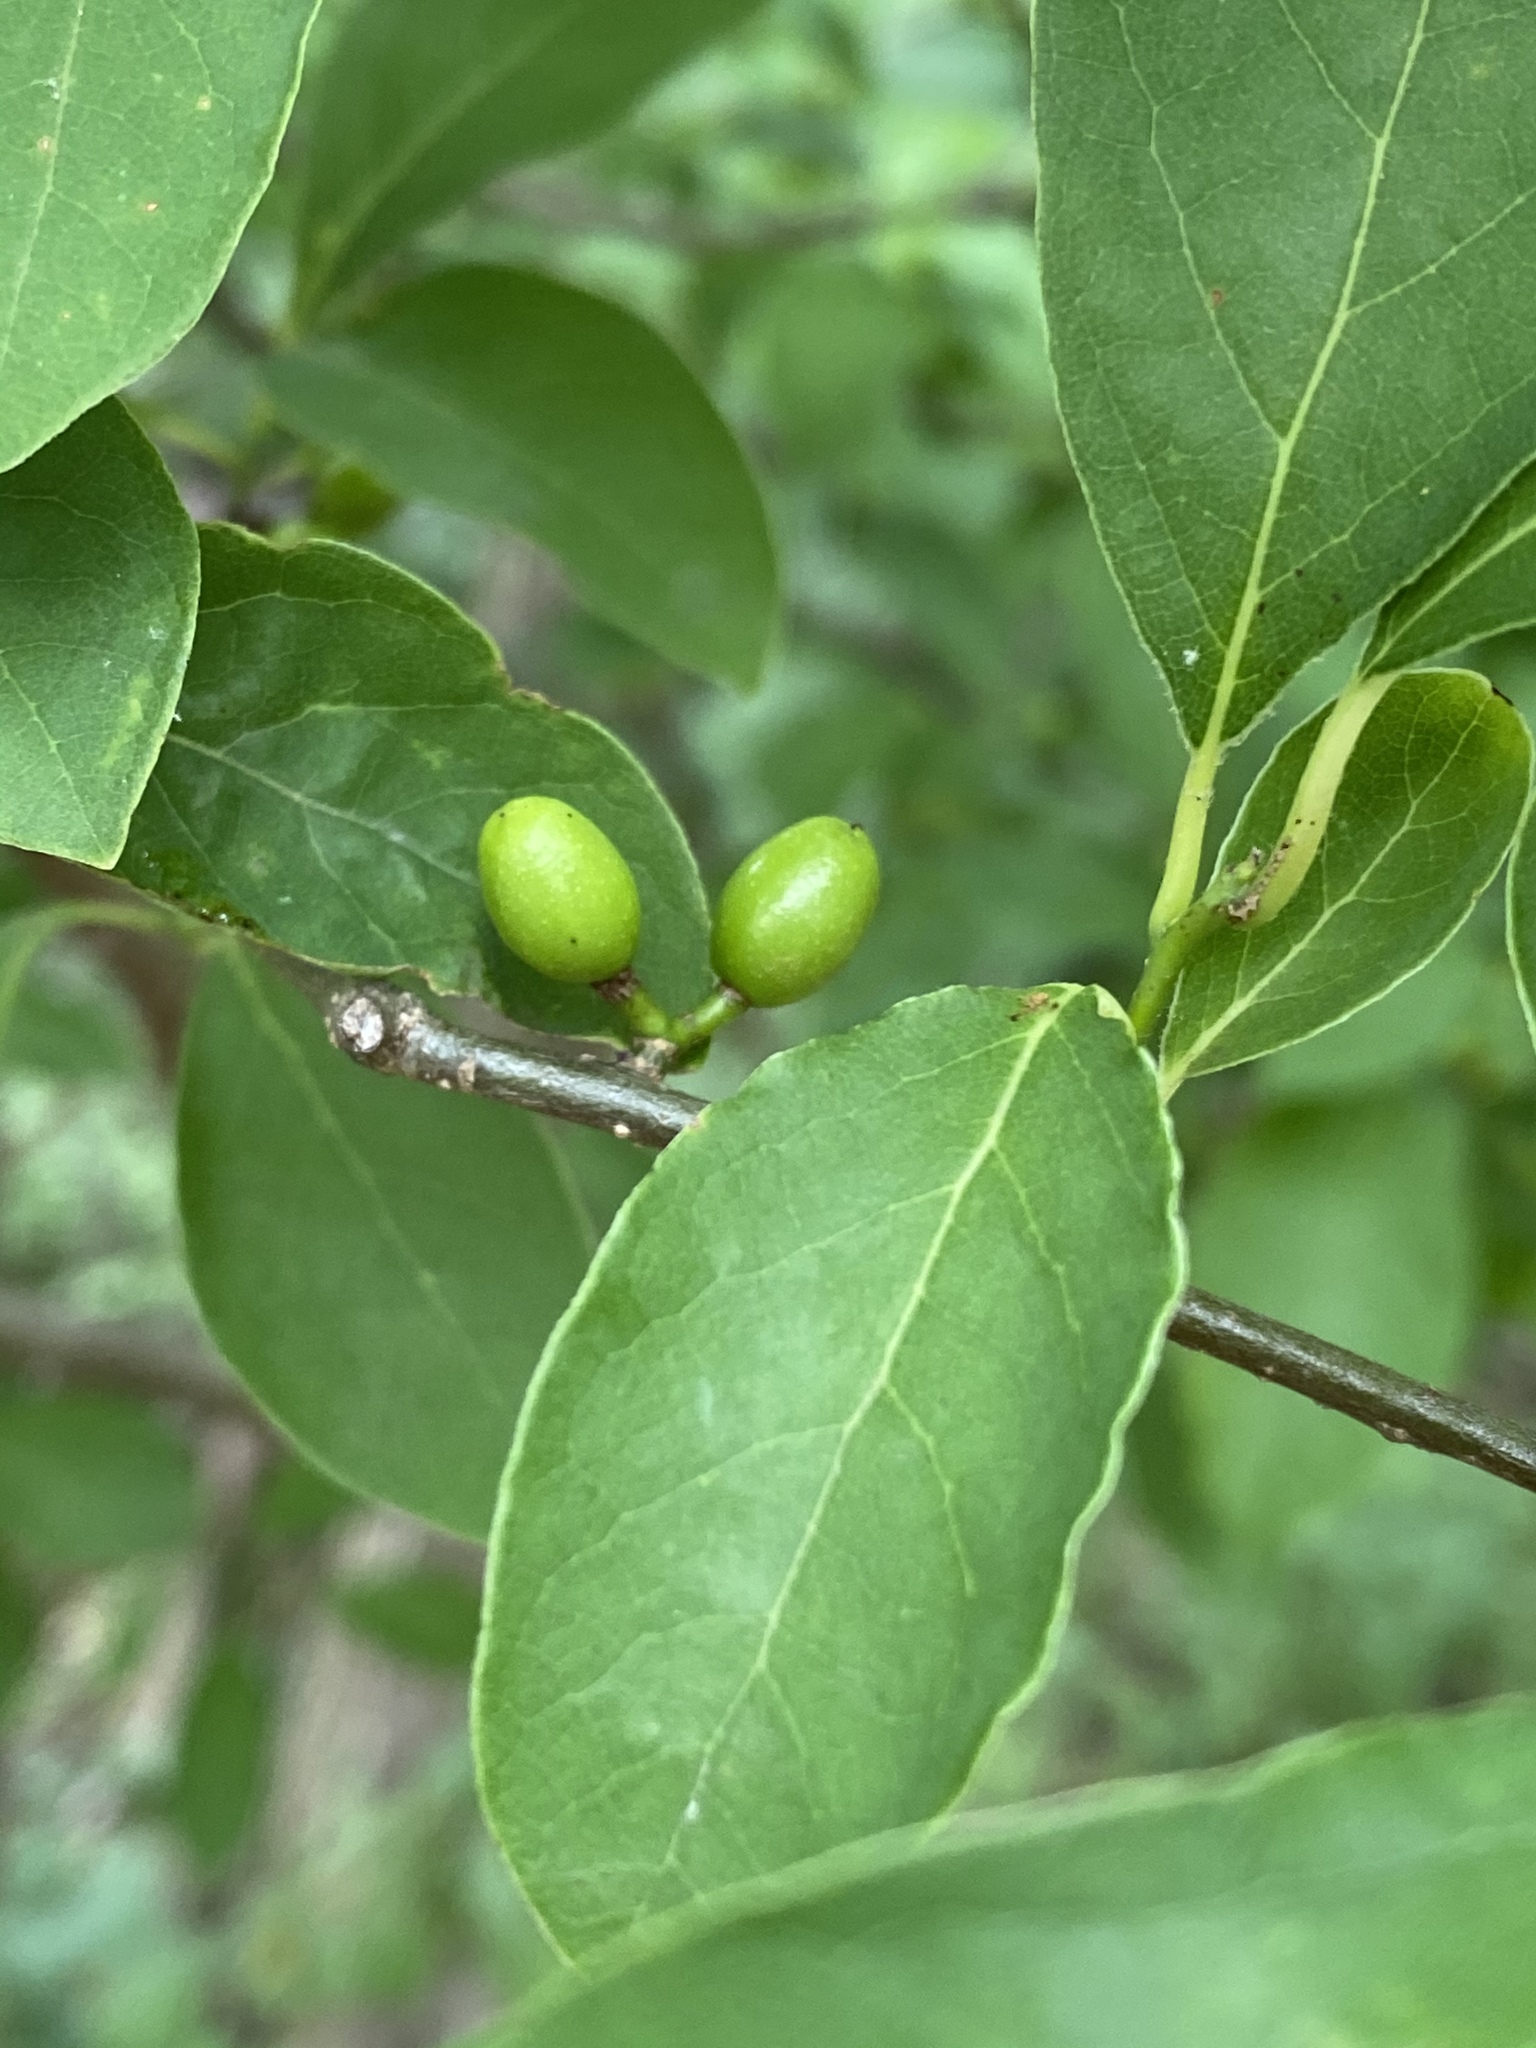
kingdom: Plantae
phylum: Tracheophyta
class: Magnoliopsida
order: Laurales
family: Lauraceae
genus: Lindera
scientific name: Lindera benzoin
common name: Spicebush
